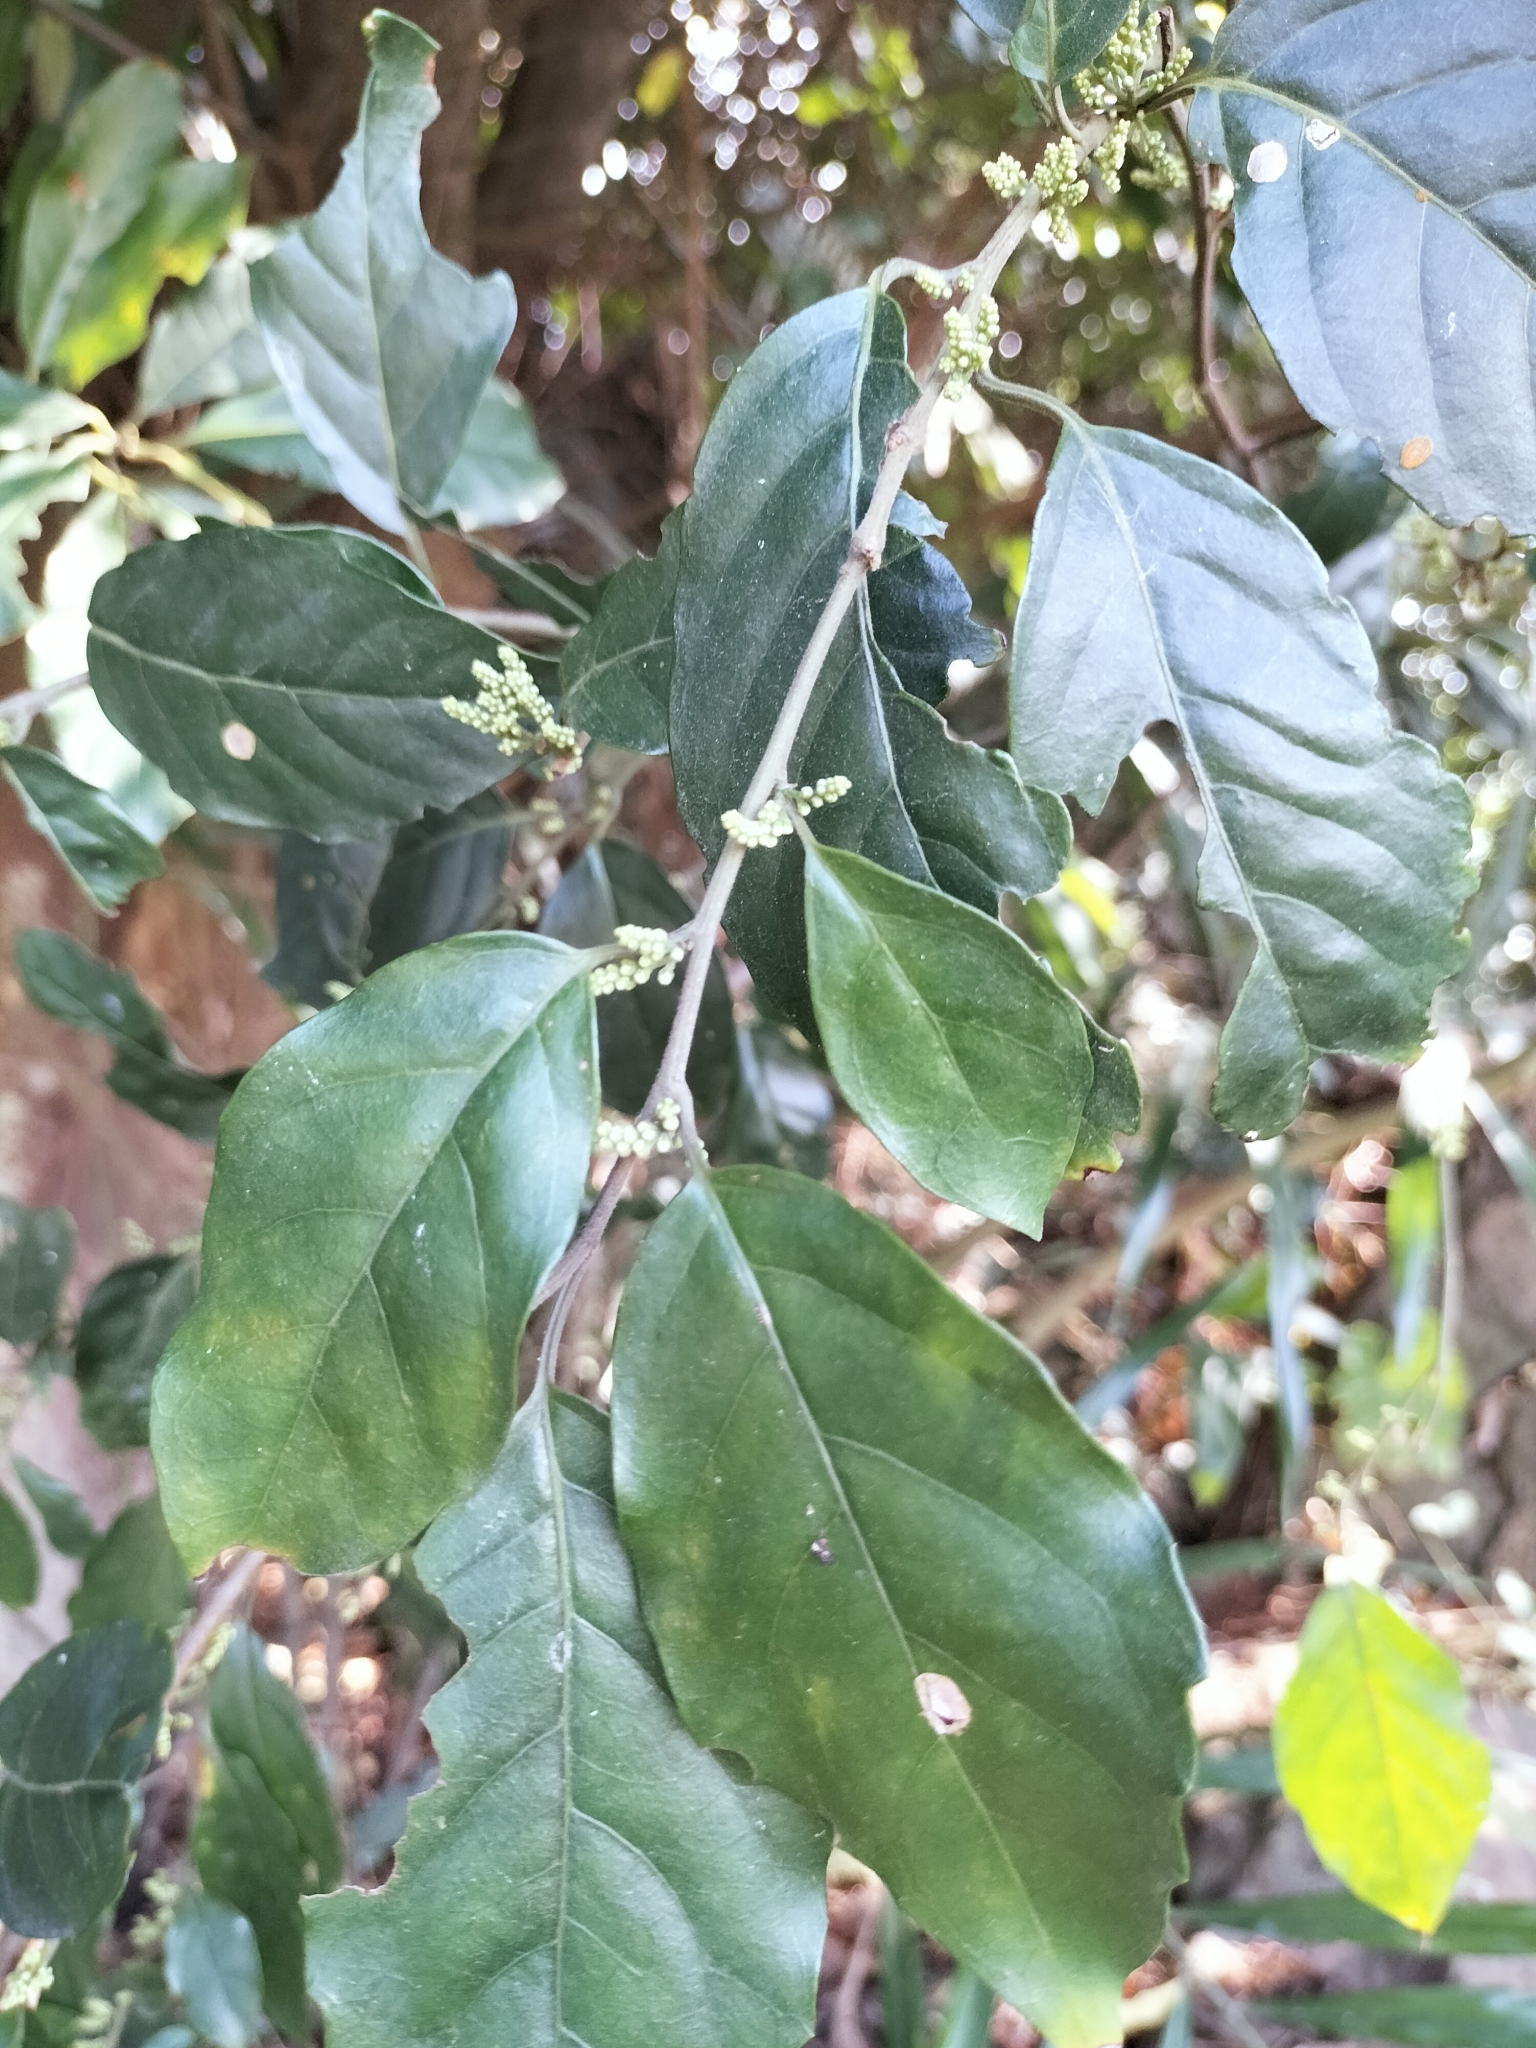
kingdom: Plantae
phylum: Tracheophyta
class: Magnoliopsida
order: Ericales
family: Primulaceae
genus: Maesa
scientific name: Maesa perlaria
